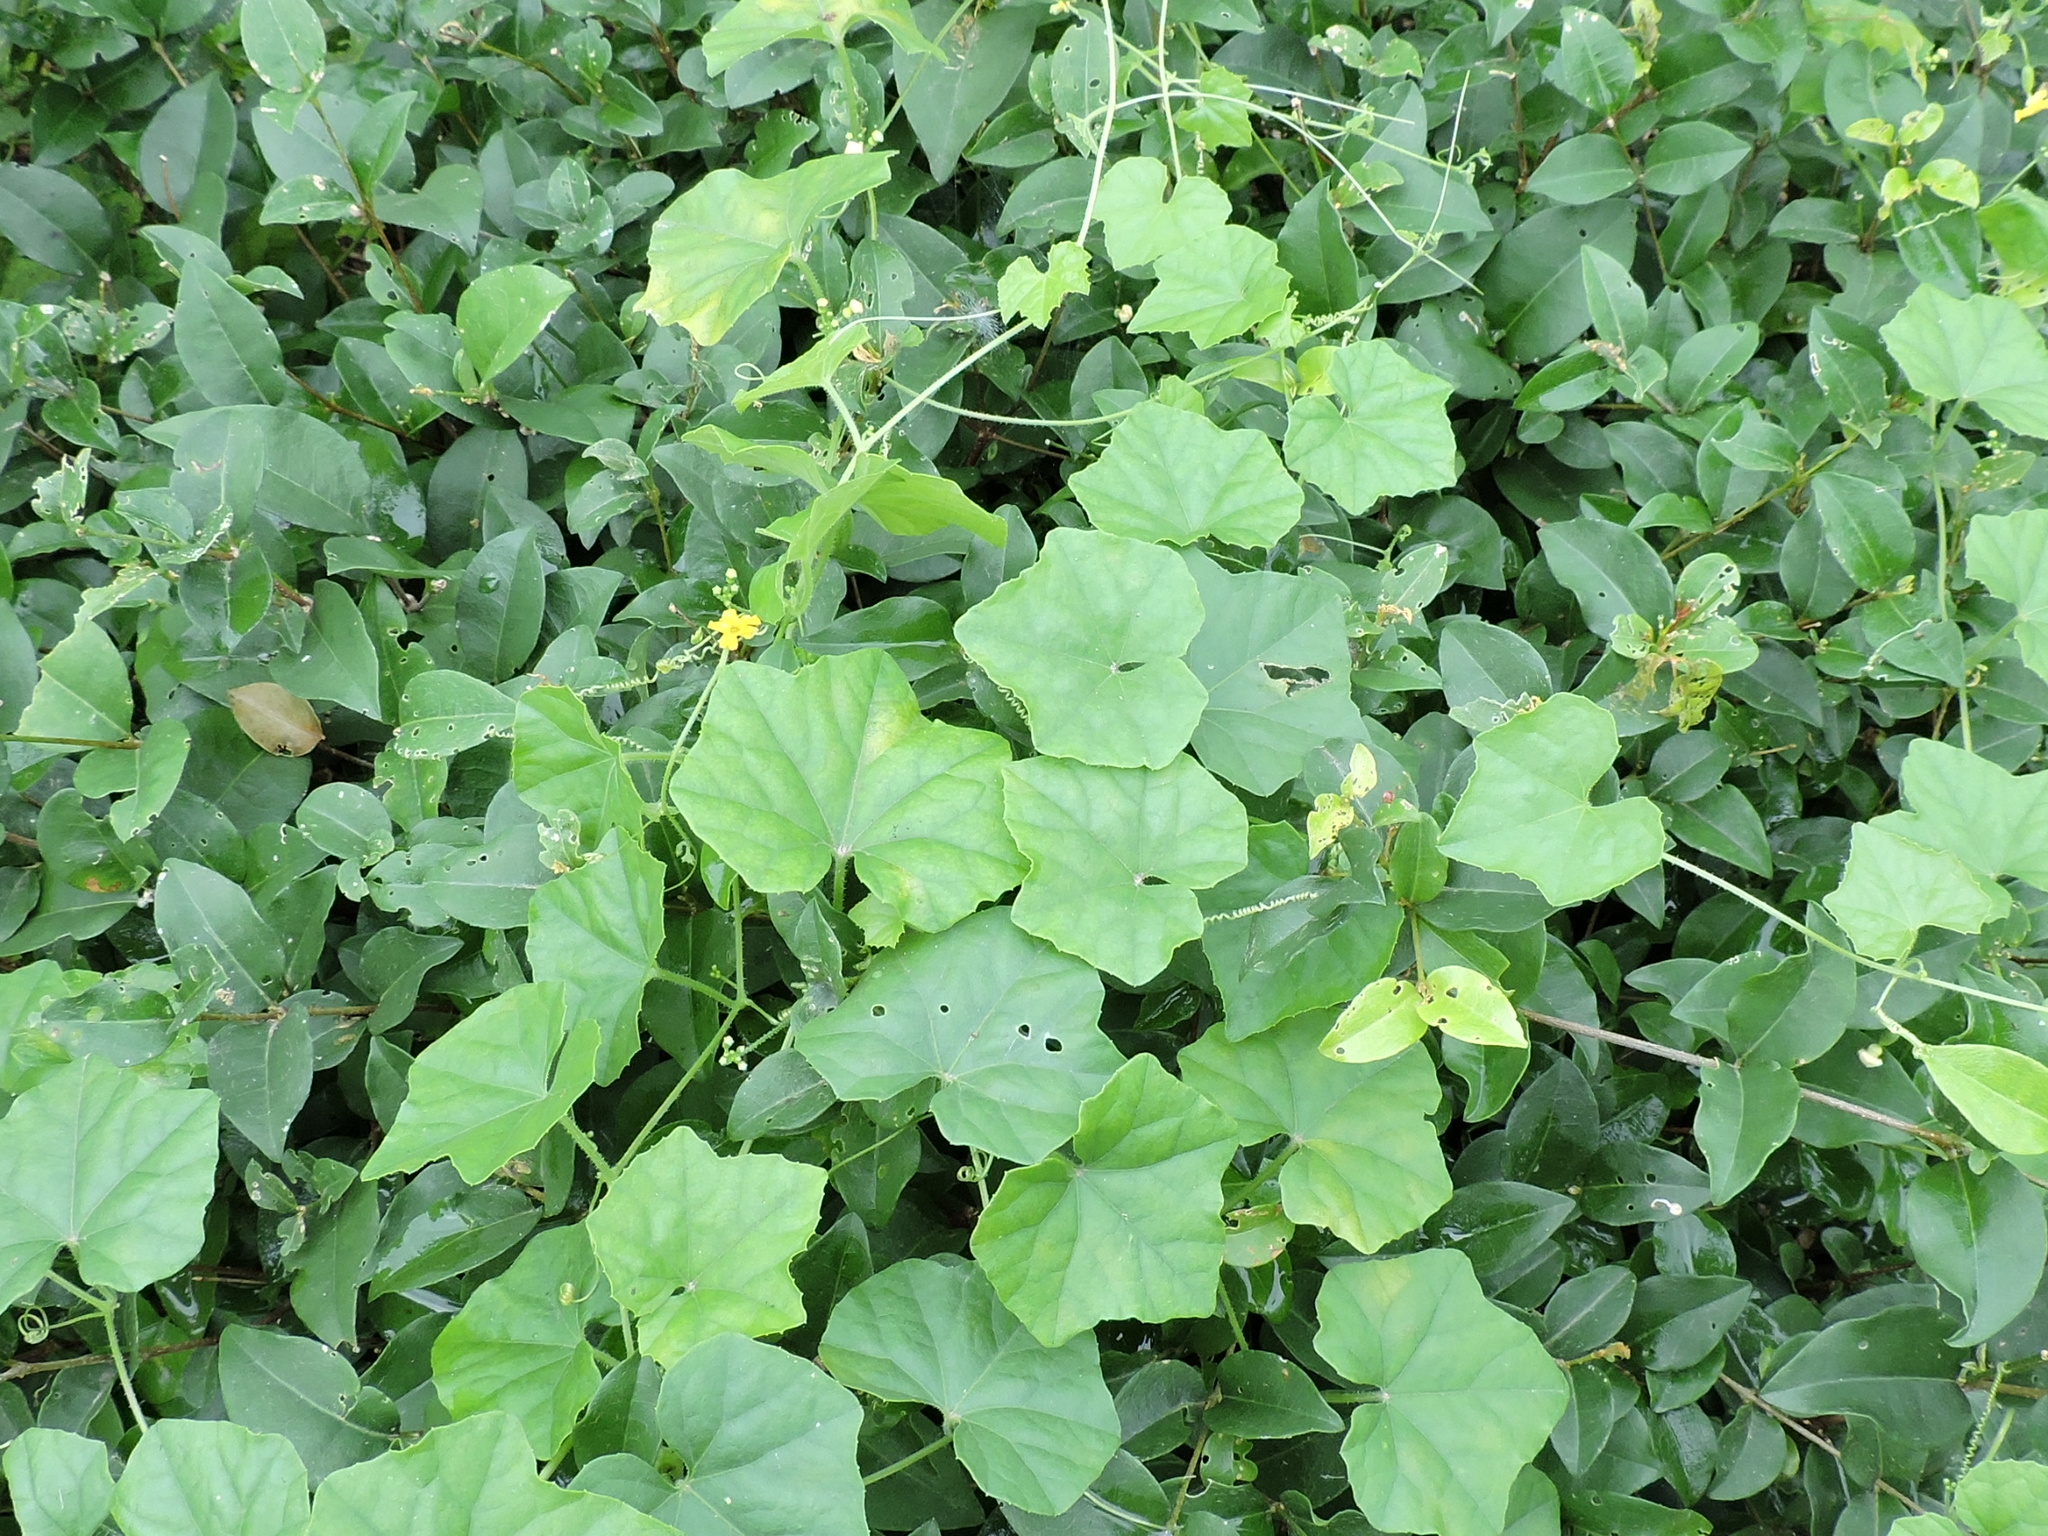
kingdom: Plantae
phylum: Tracheophyta
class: Magnoliopsida
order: Cucurbitales
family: Cucurbitaceae
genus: Melothria
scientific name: Melothria pendula
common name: Creeping-cucumber
